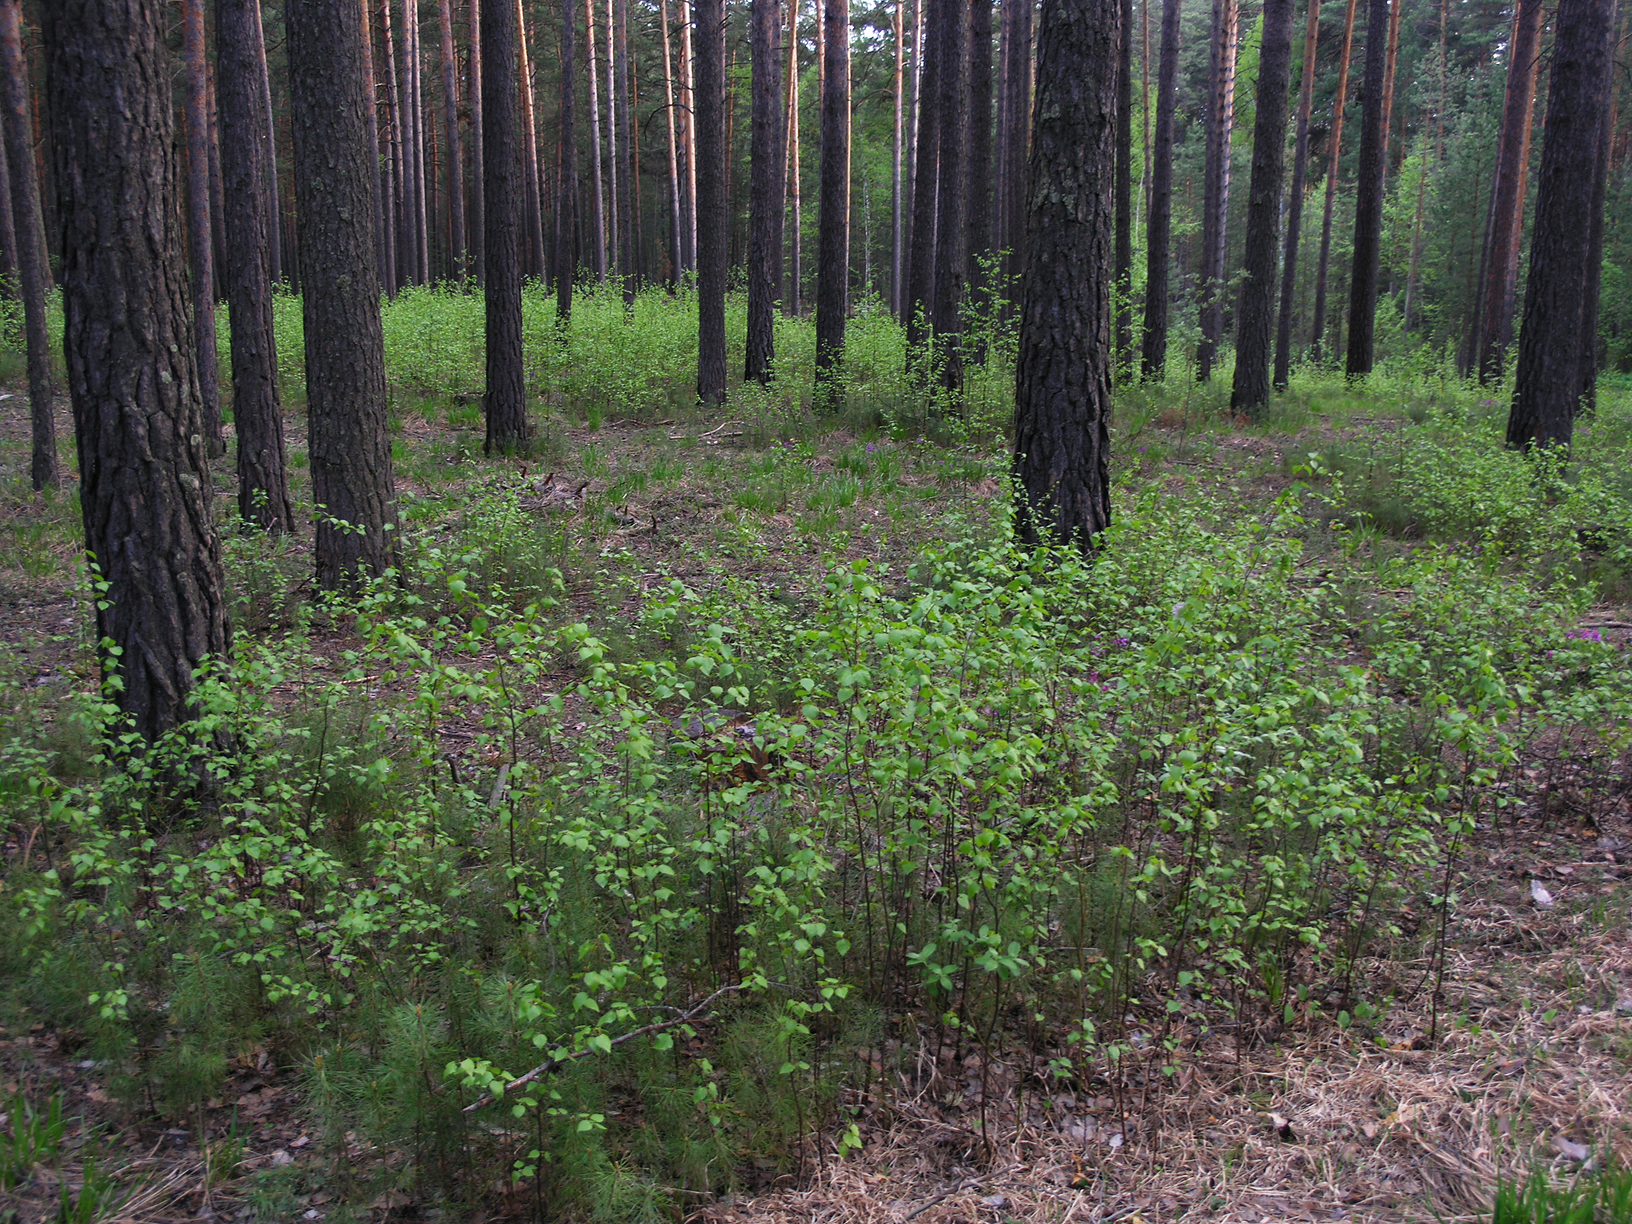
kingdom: Plantae
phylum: Tracheophyta
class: Pinopsida
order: Pinales
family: Pinaceae
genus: Pinus
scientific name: Pinus sylvestris
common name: Scots pine
